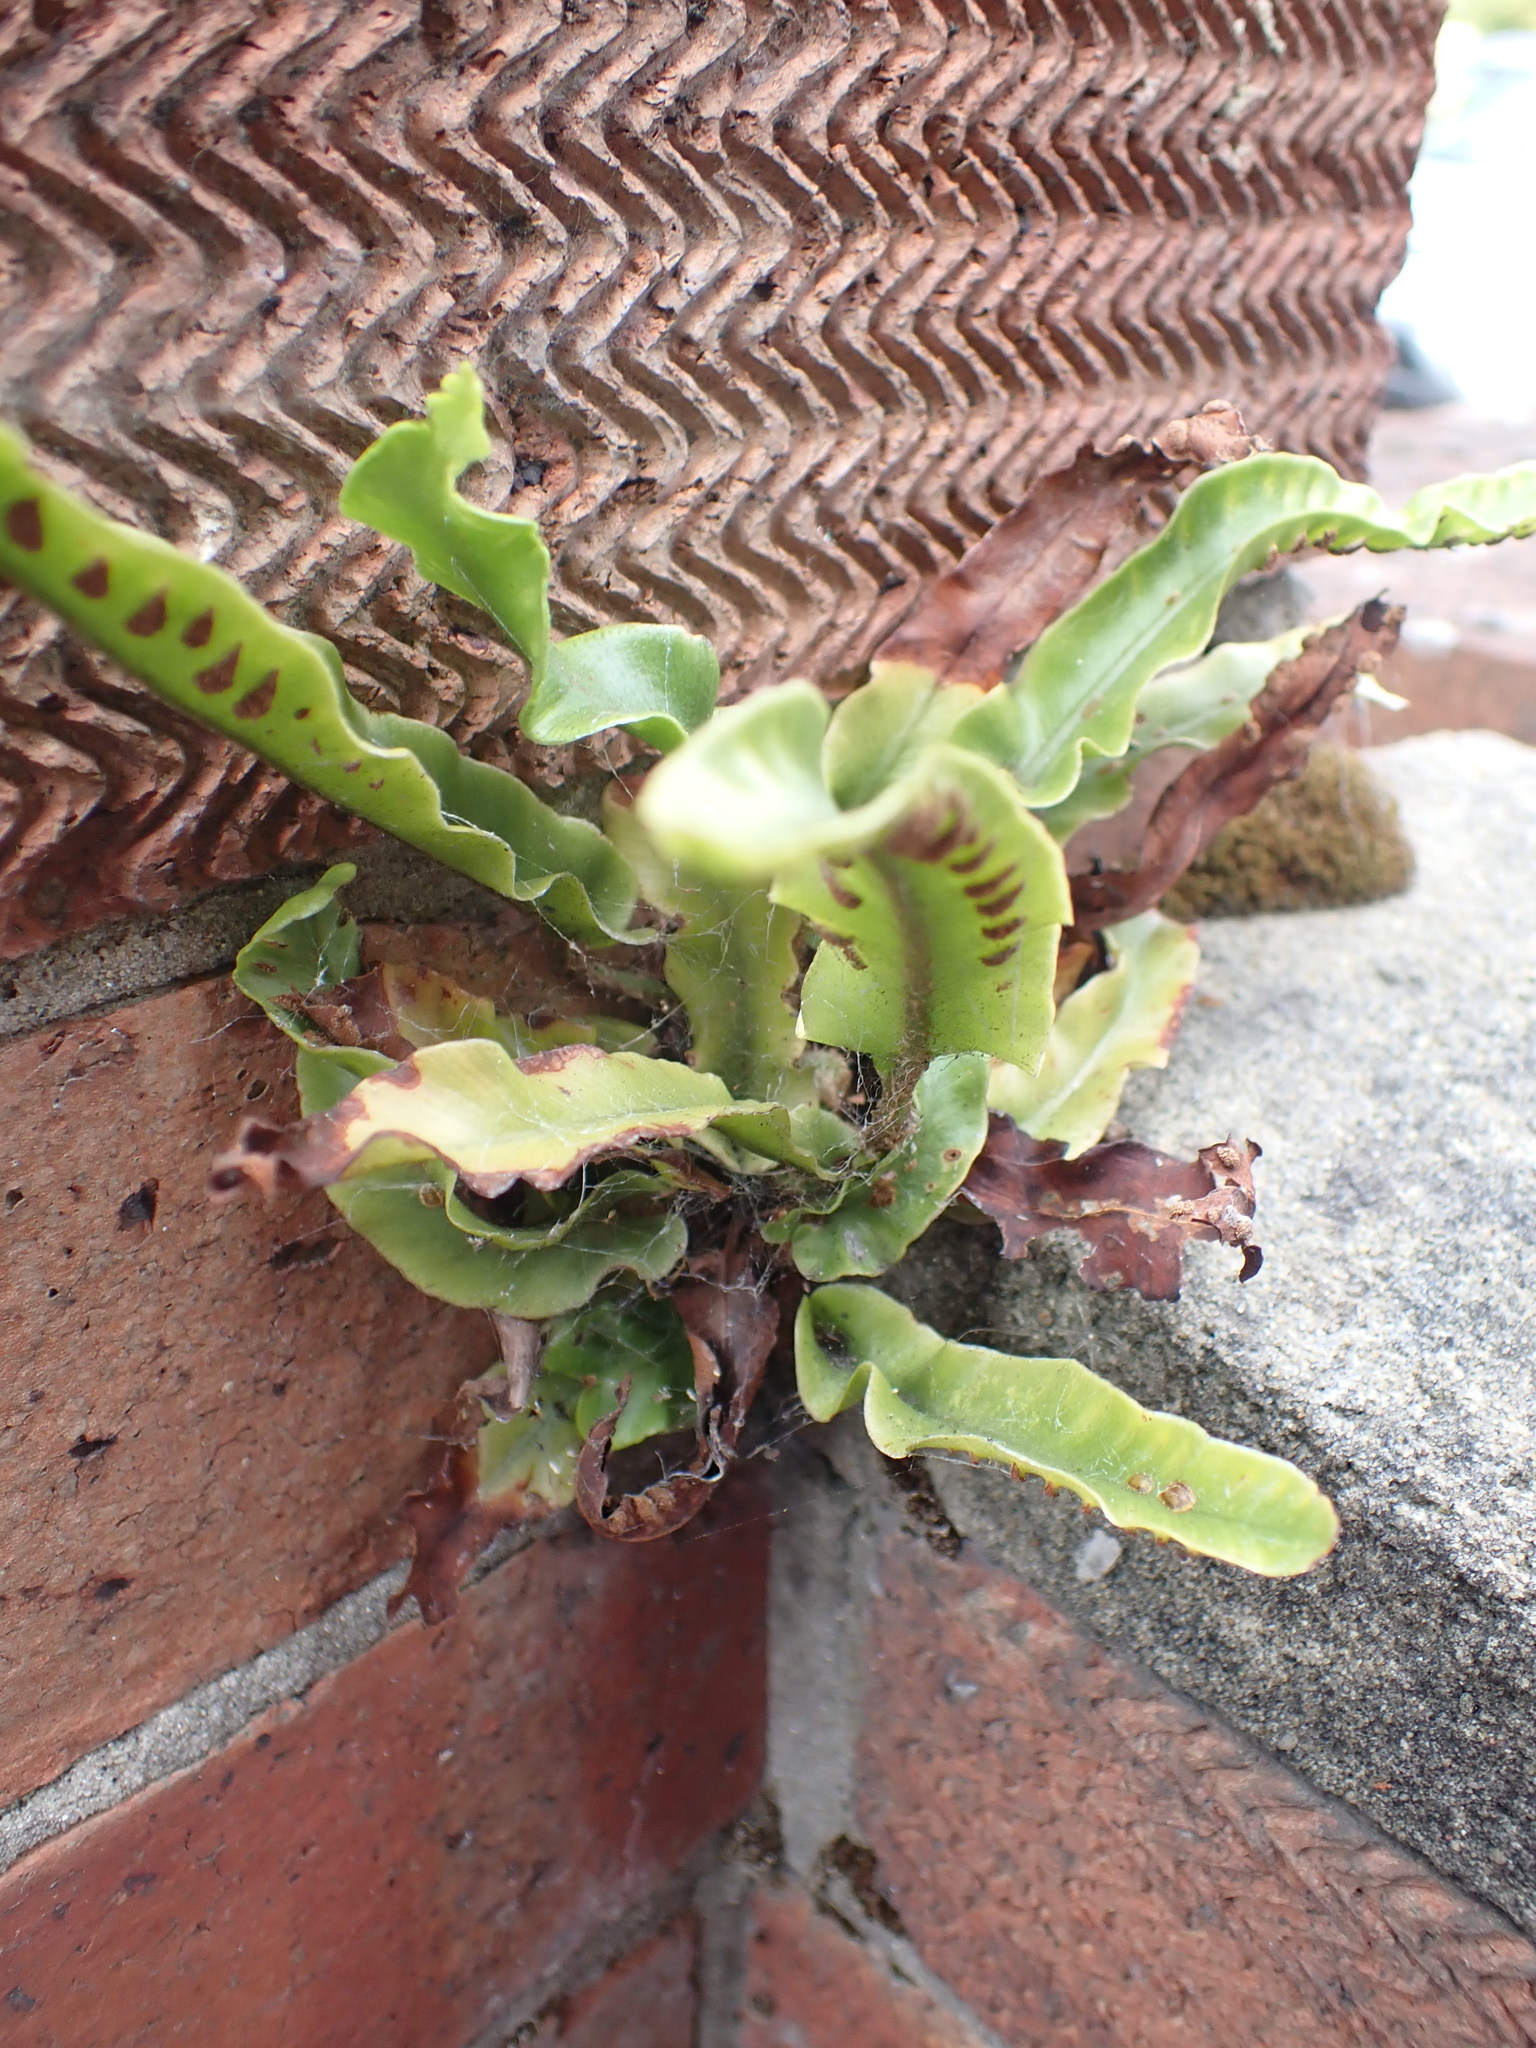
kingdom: Plantae
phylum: Tracheophyta
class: Polypodiopsida
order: Polypodiales
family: Aspleniaceae
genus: Asplenium
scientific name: Asplenium scolopendrium
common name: Hart's-tongue fern
